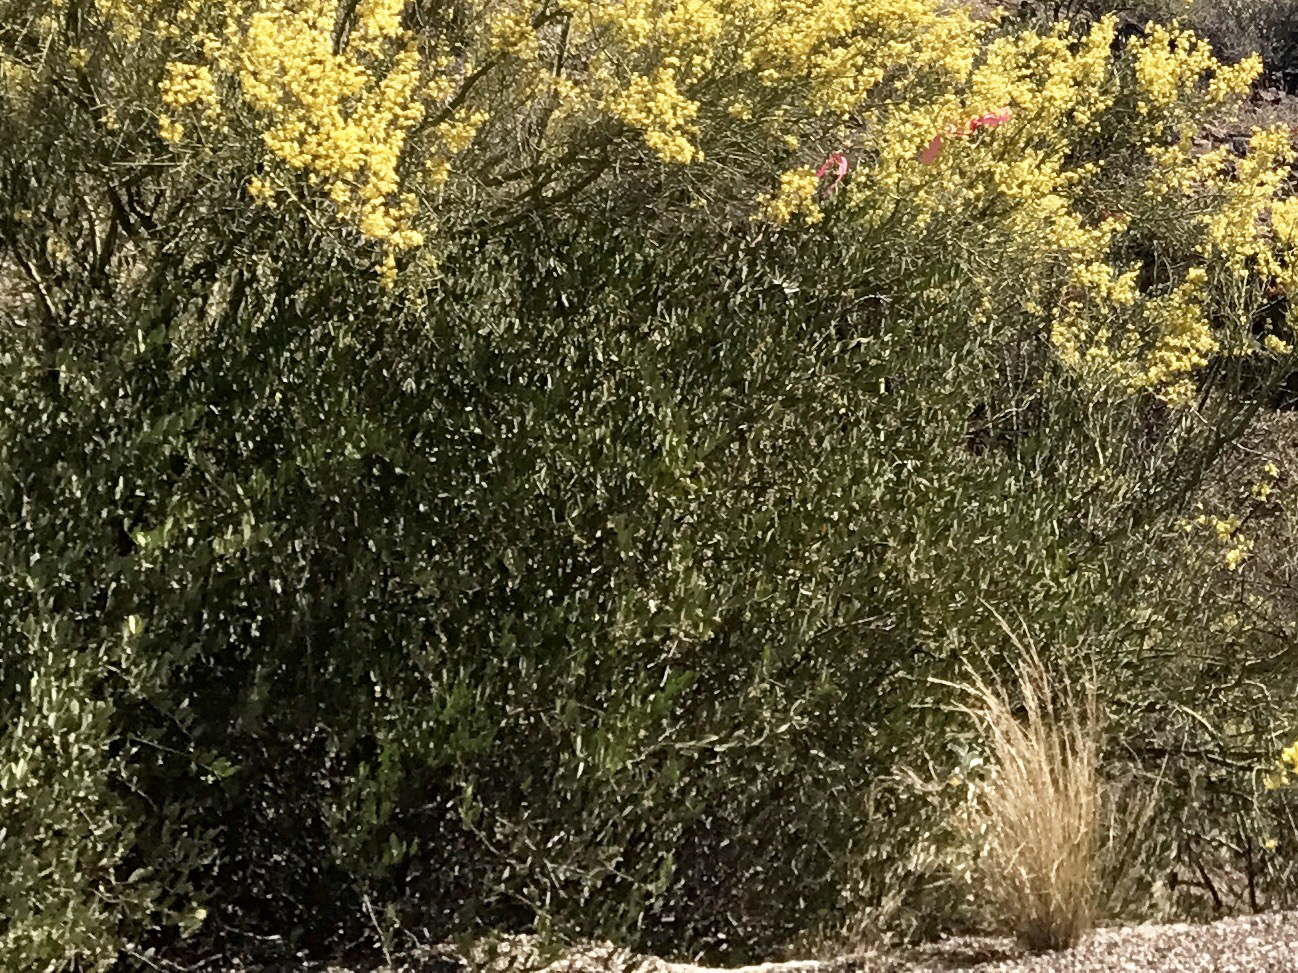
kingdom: Plantae
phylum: Tracheophyta
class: Magnoliopsida
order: Caryophyllales
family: Simmondsiaceae
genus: Simmondsia
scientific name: Simmondsia chinensis
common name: Jojoba
